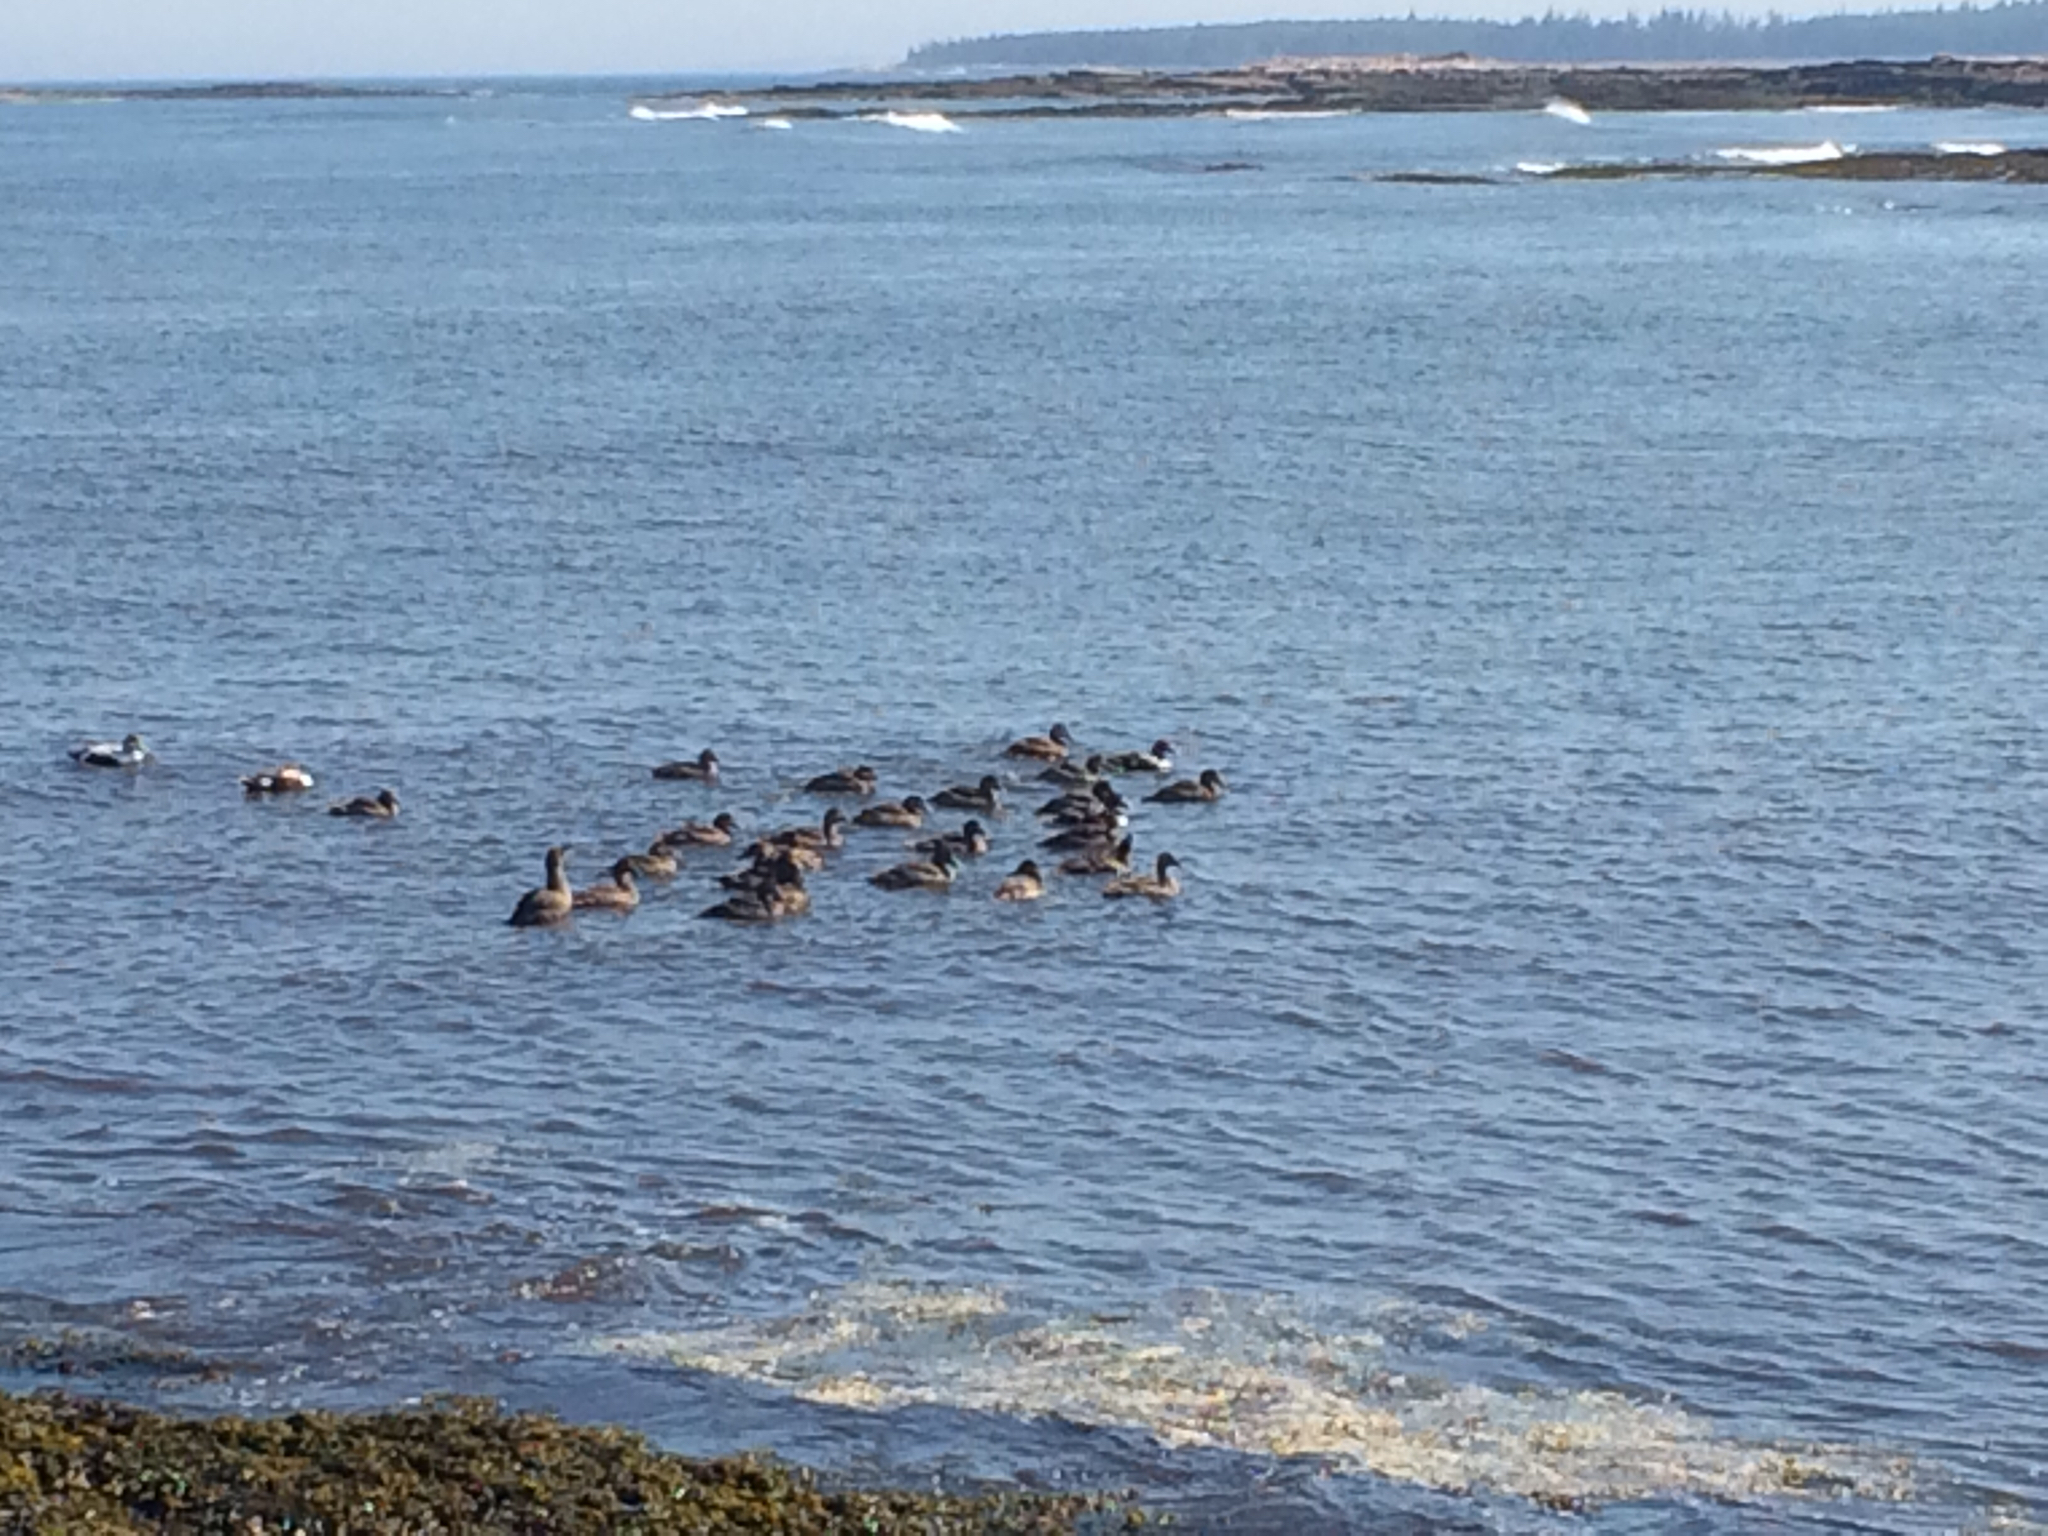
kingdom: Animalia
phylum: Chordata
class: Aves
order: Anseriformes
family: Anatidae
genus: Somateria
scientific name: Somateria mollissima
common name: Common eider
